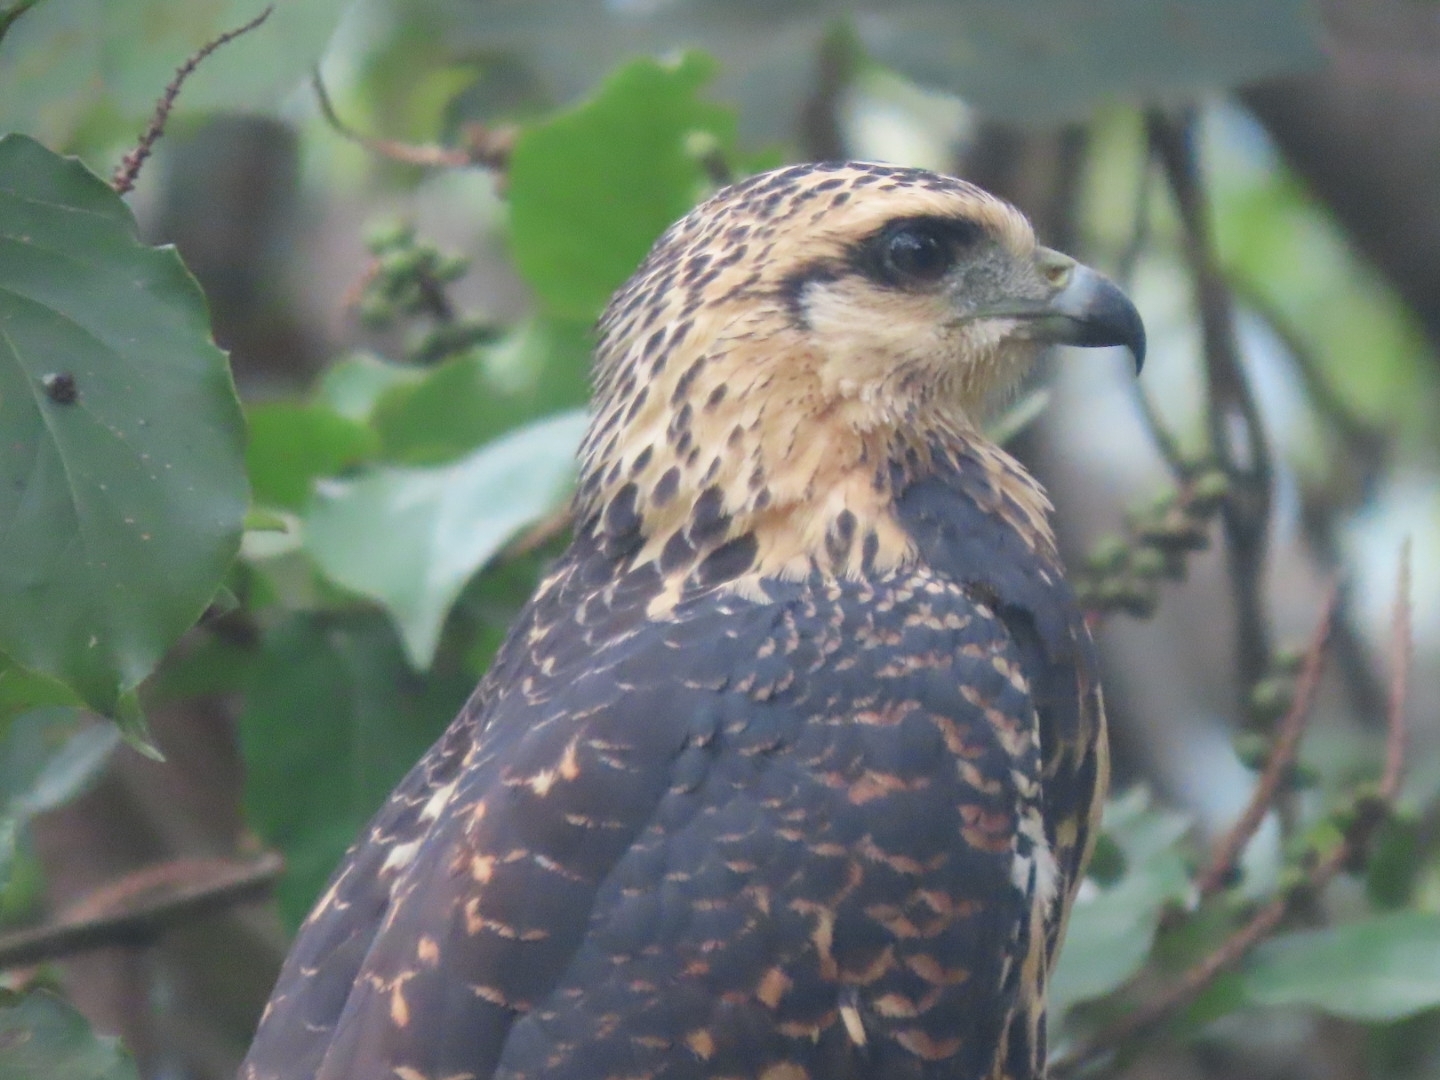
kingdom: Animalia
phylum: Chordata
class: Aves
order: Accipitriformes
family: Accipitridae
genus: Buteogallus
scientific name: Buteogallus anthracinus
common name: Common black hawk
